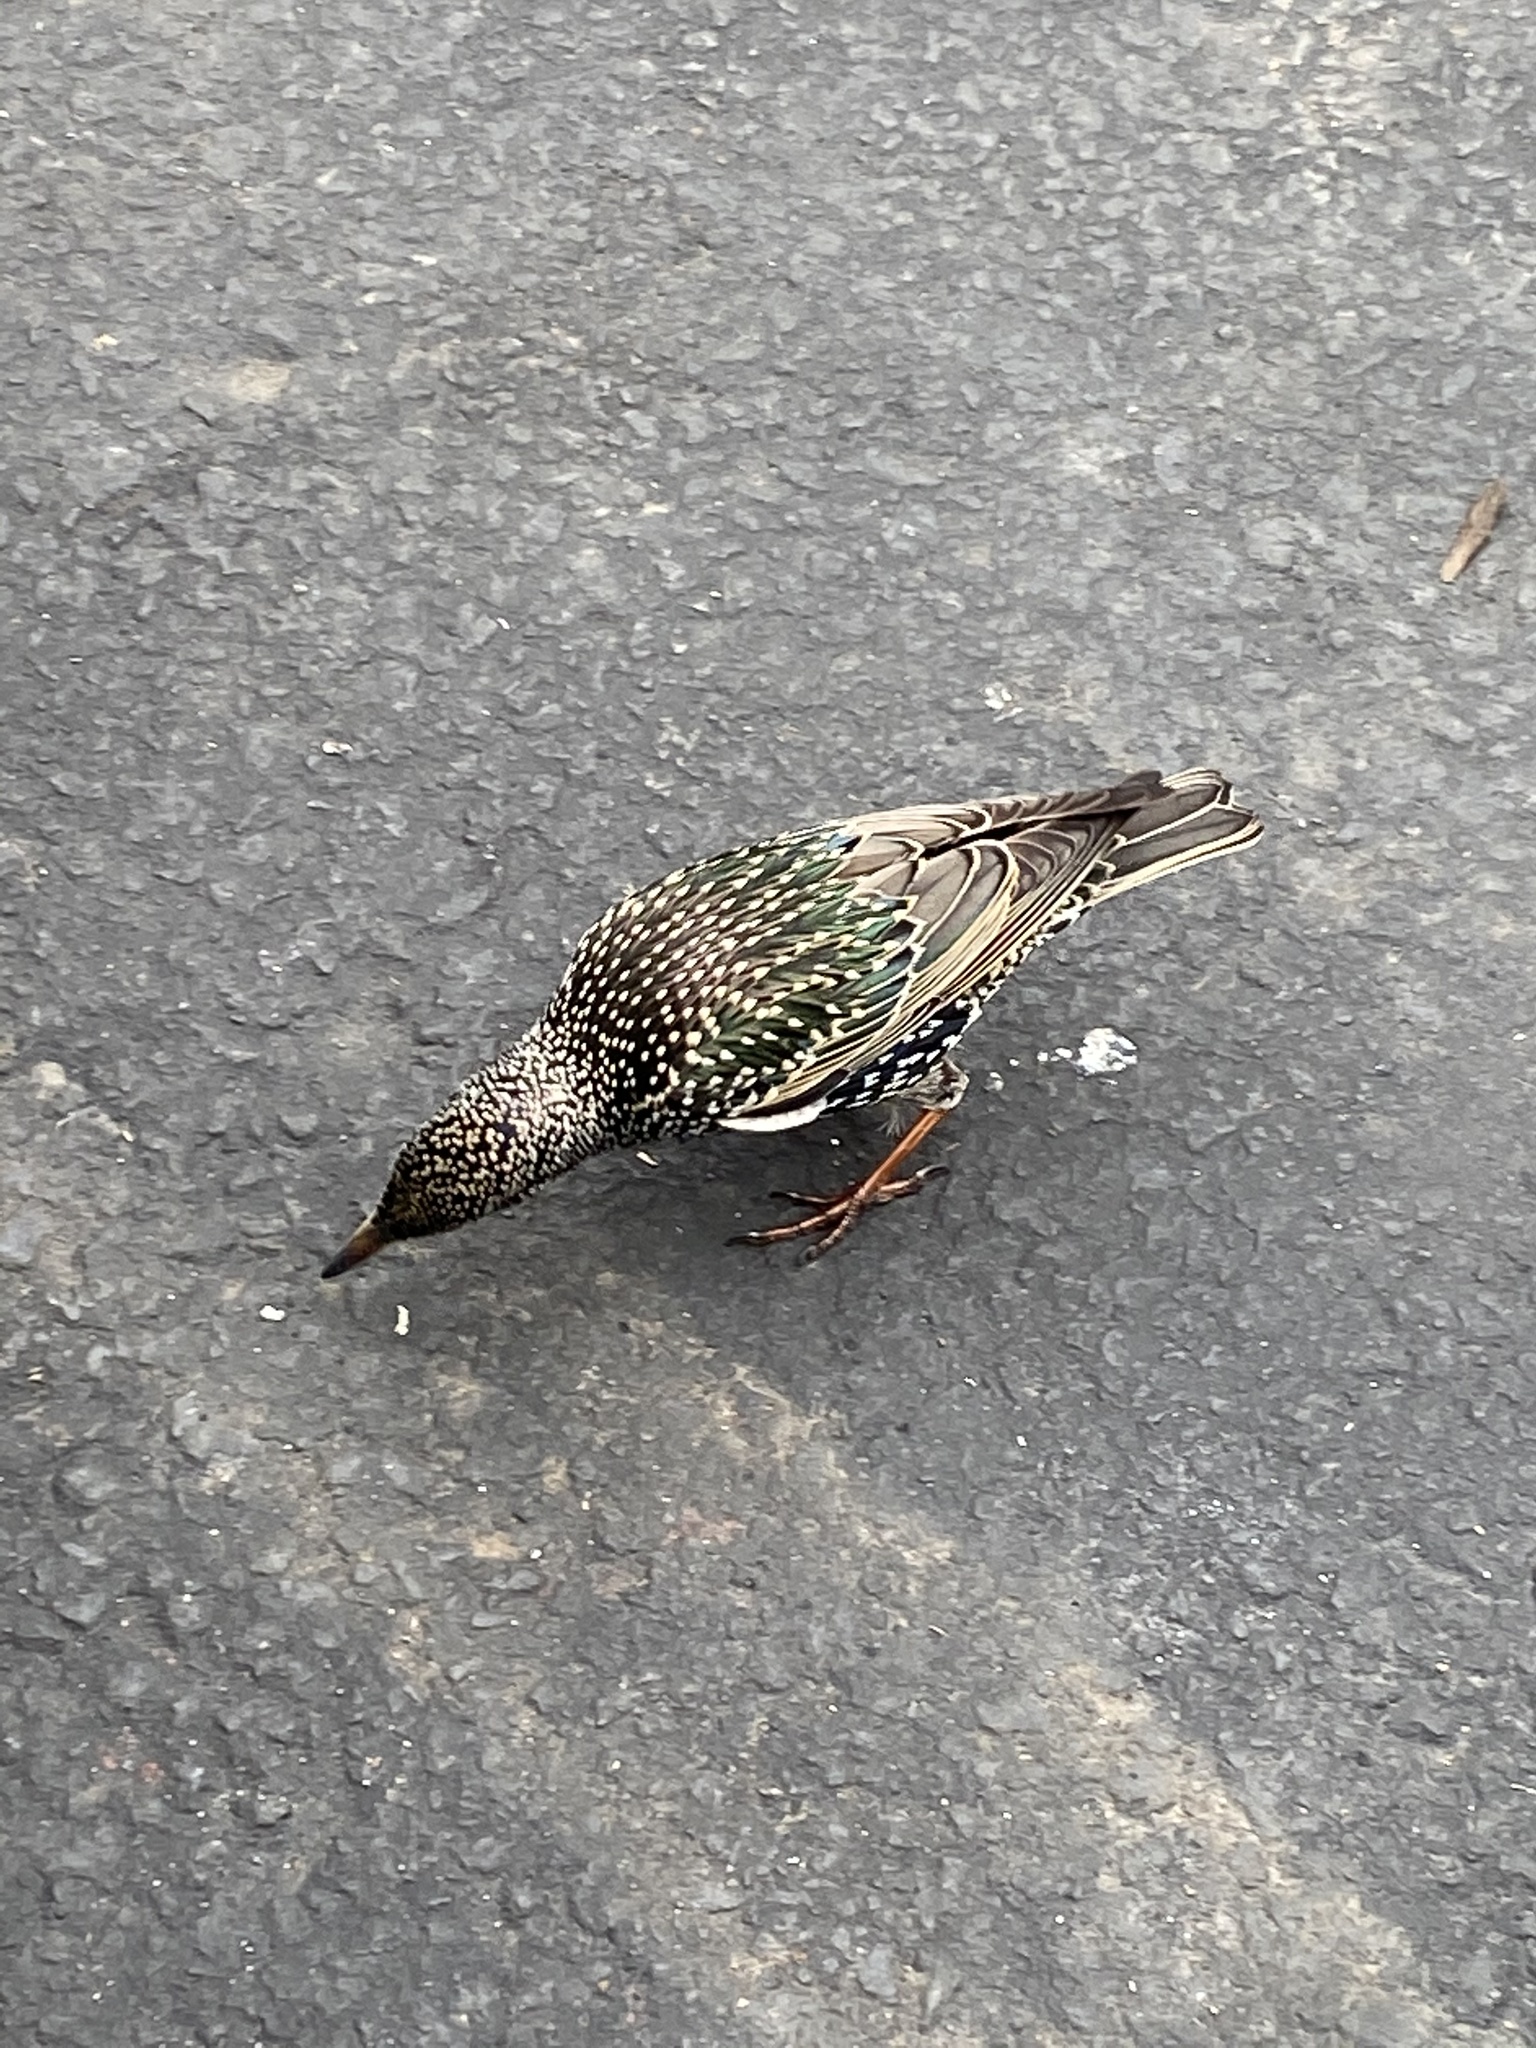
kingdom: Animalia
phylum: Chordata
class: Aves
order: Passeriformes
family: Sturnidae
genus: Sturnus
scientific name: Sturnus vulgaris
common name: Common starling
